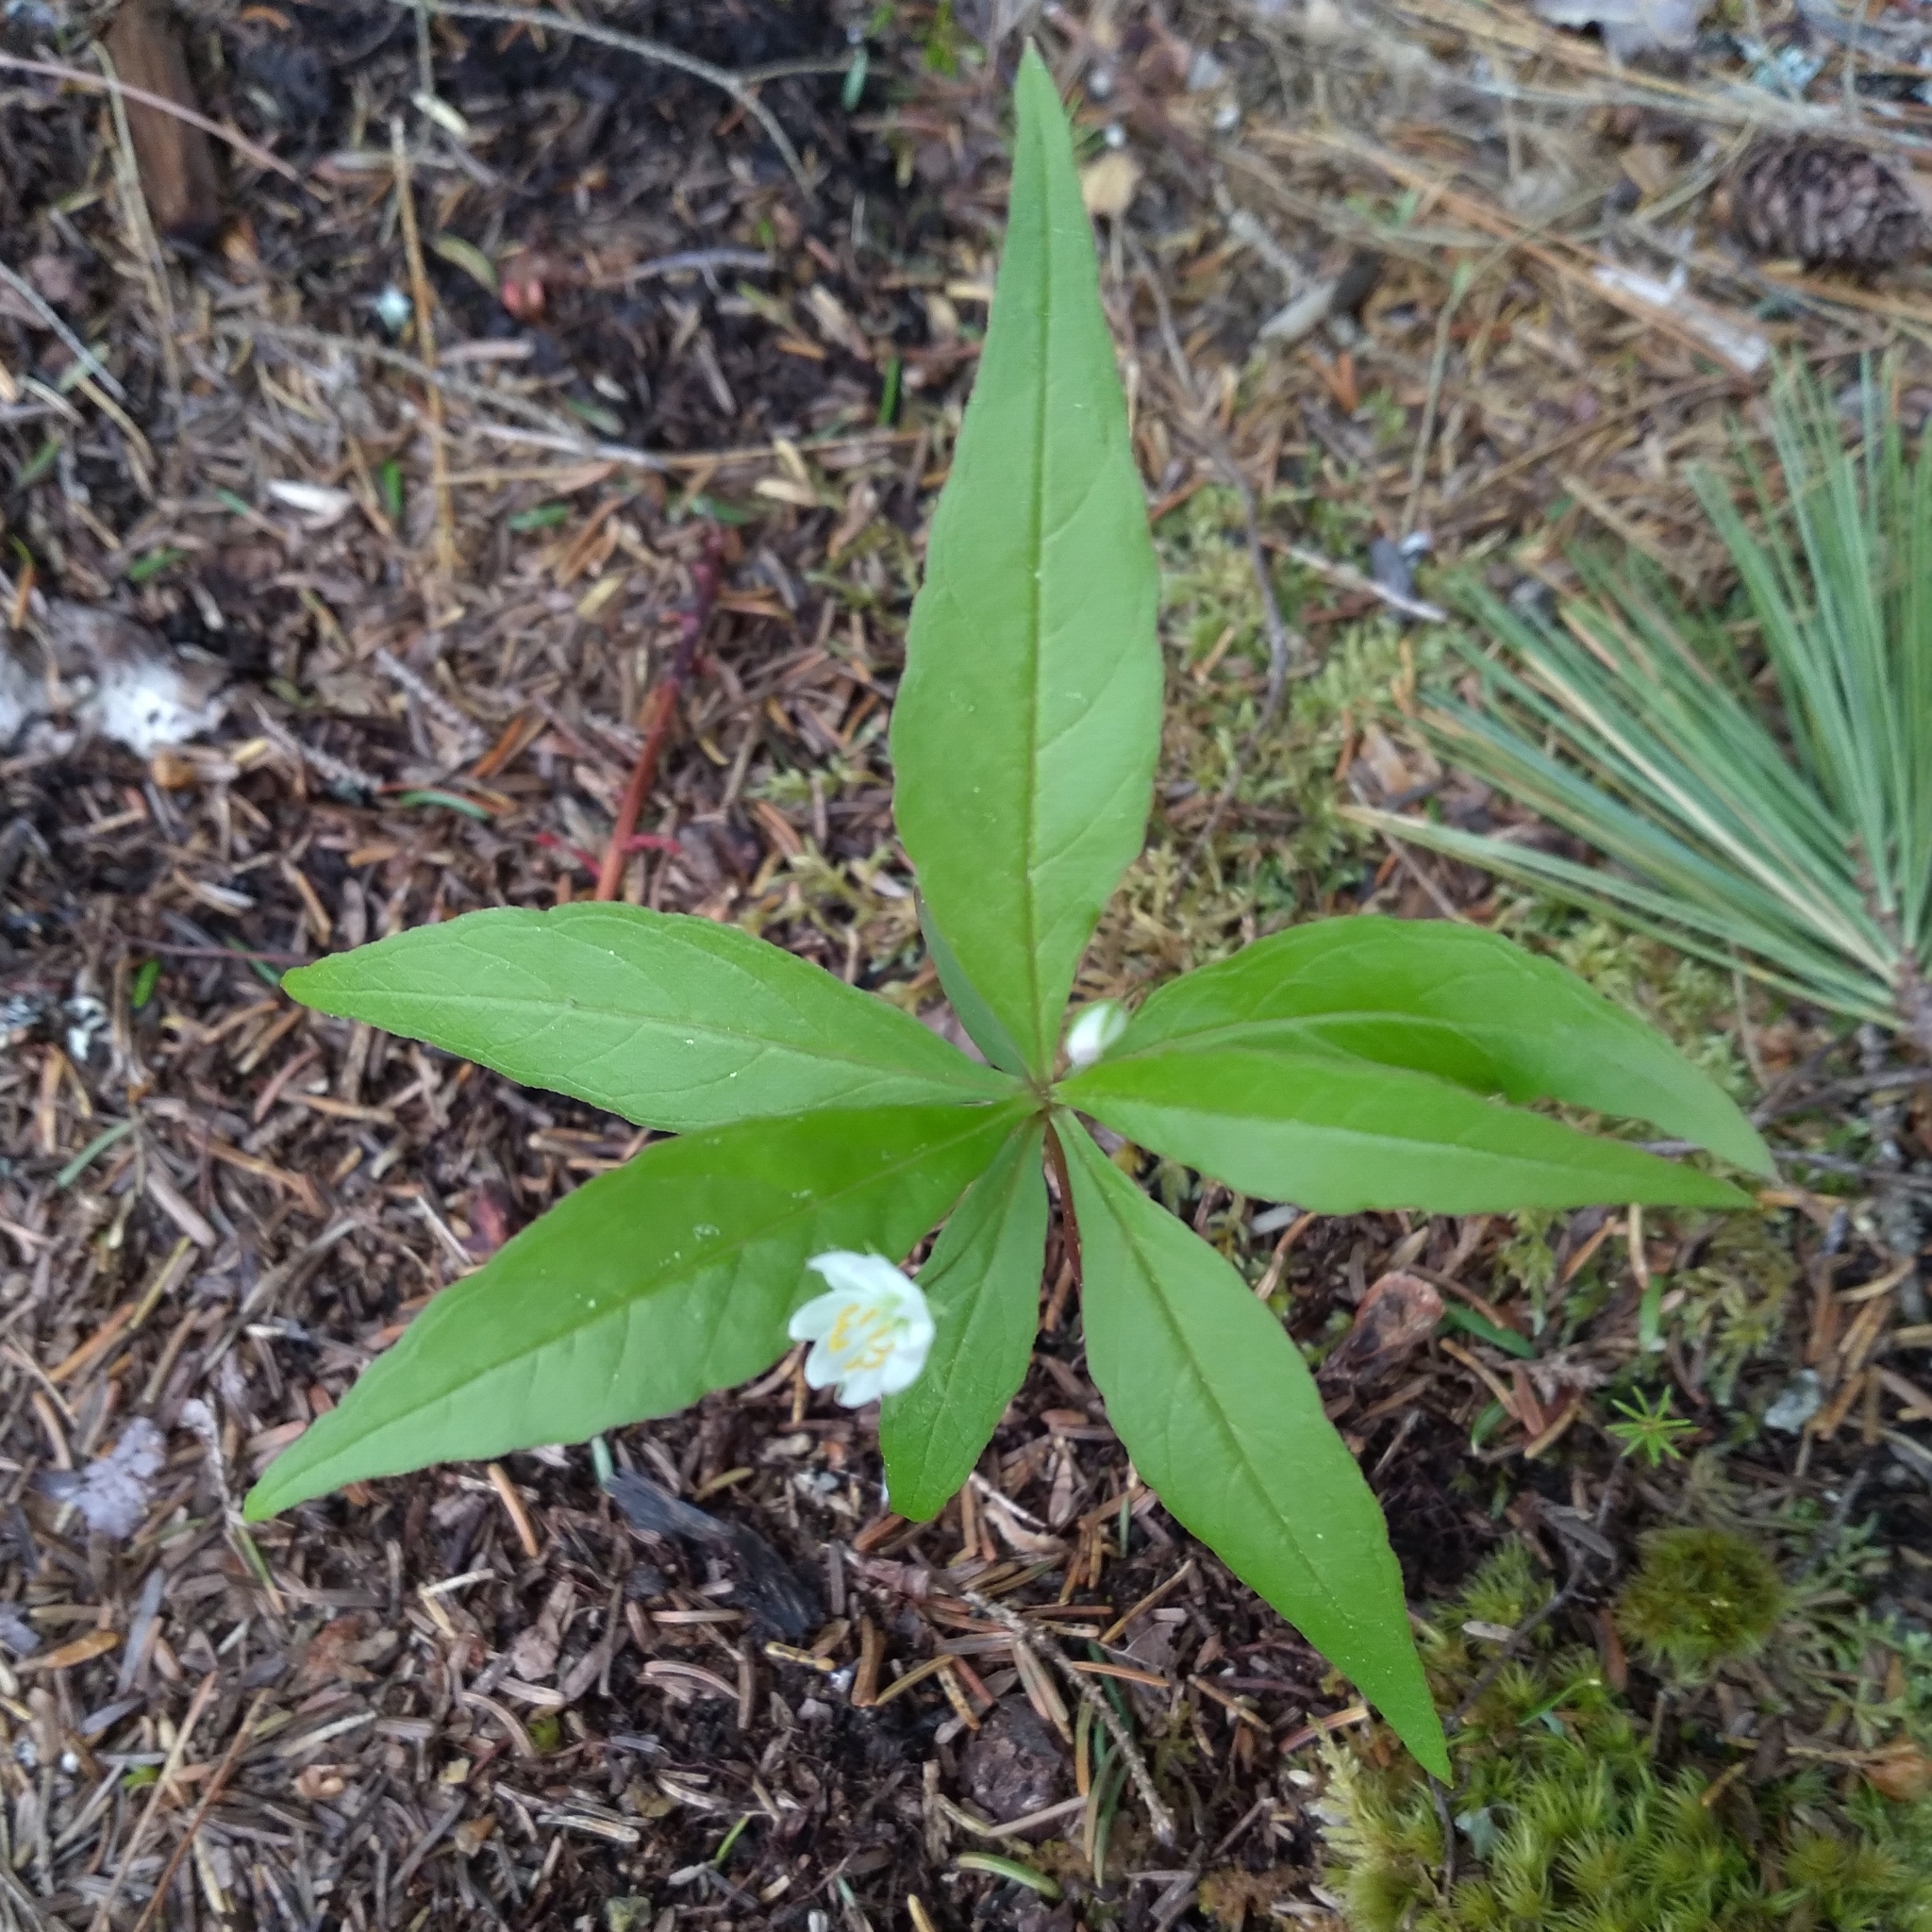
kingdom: Plantae
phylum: Tracheophyta
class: Magnoliopsida
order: Ericales
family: Primulaceae
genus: Lysimachia
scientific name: Lysimachia borealis
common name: American starflower
